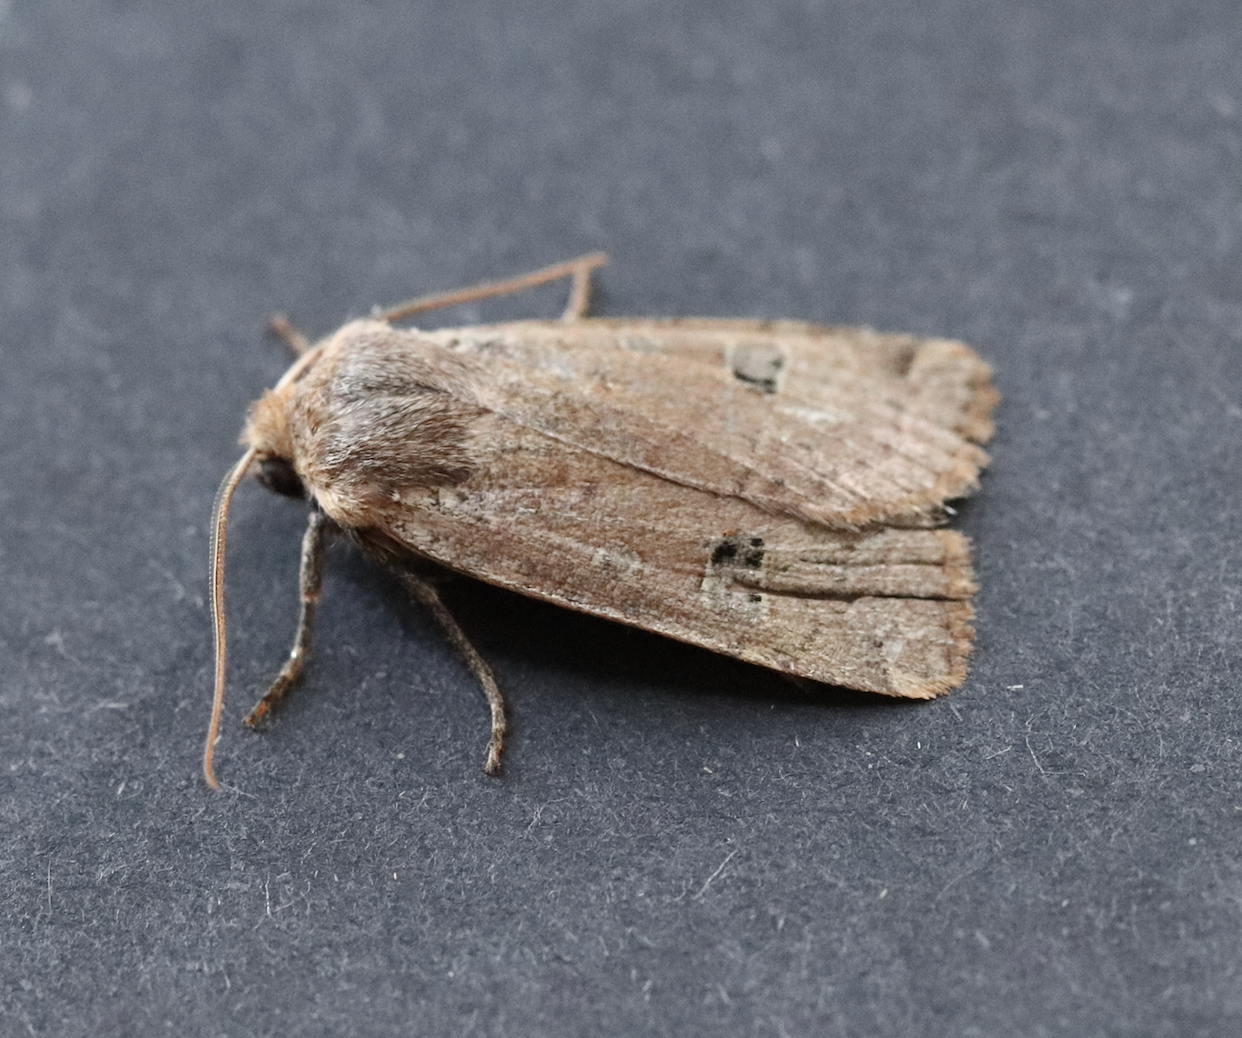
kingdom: Animalia
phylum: Arthropoda
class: Insecta
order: Lepidoptera
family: Noctuidae
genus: Conistra
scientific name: Conistra erythrocephala
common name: Red-headed chestnut
